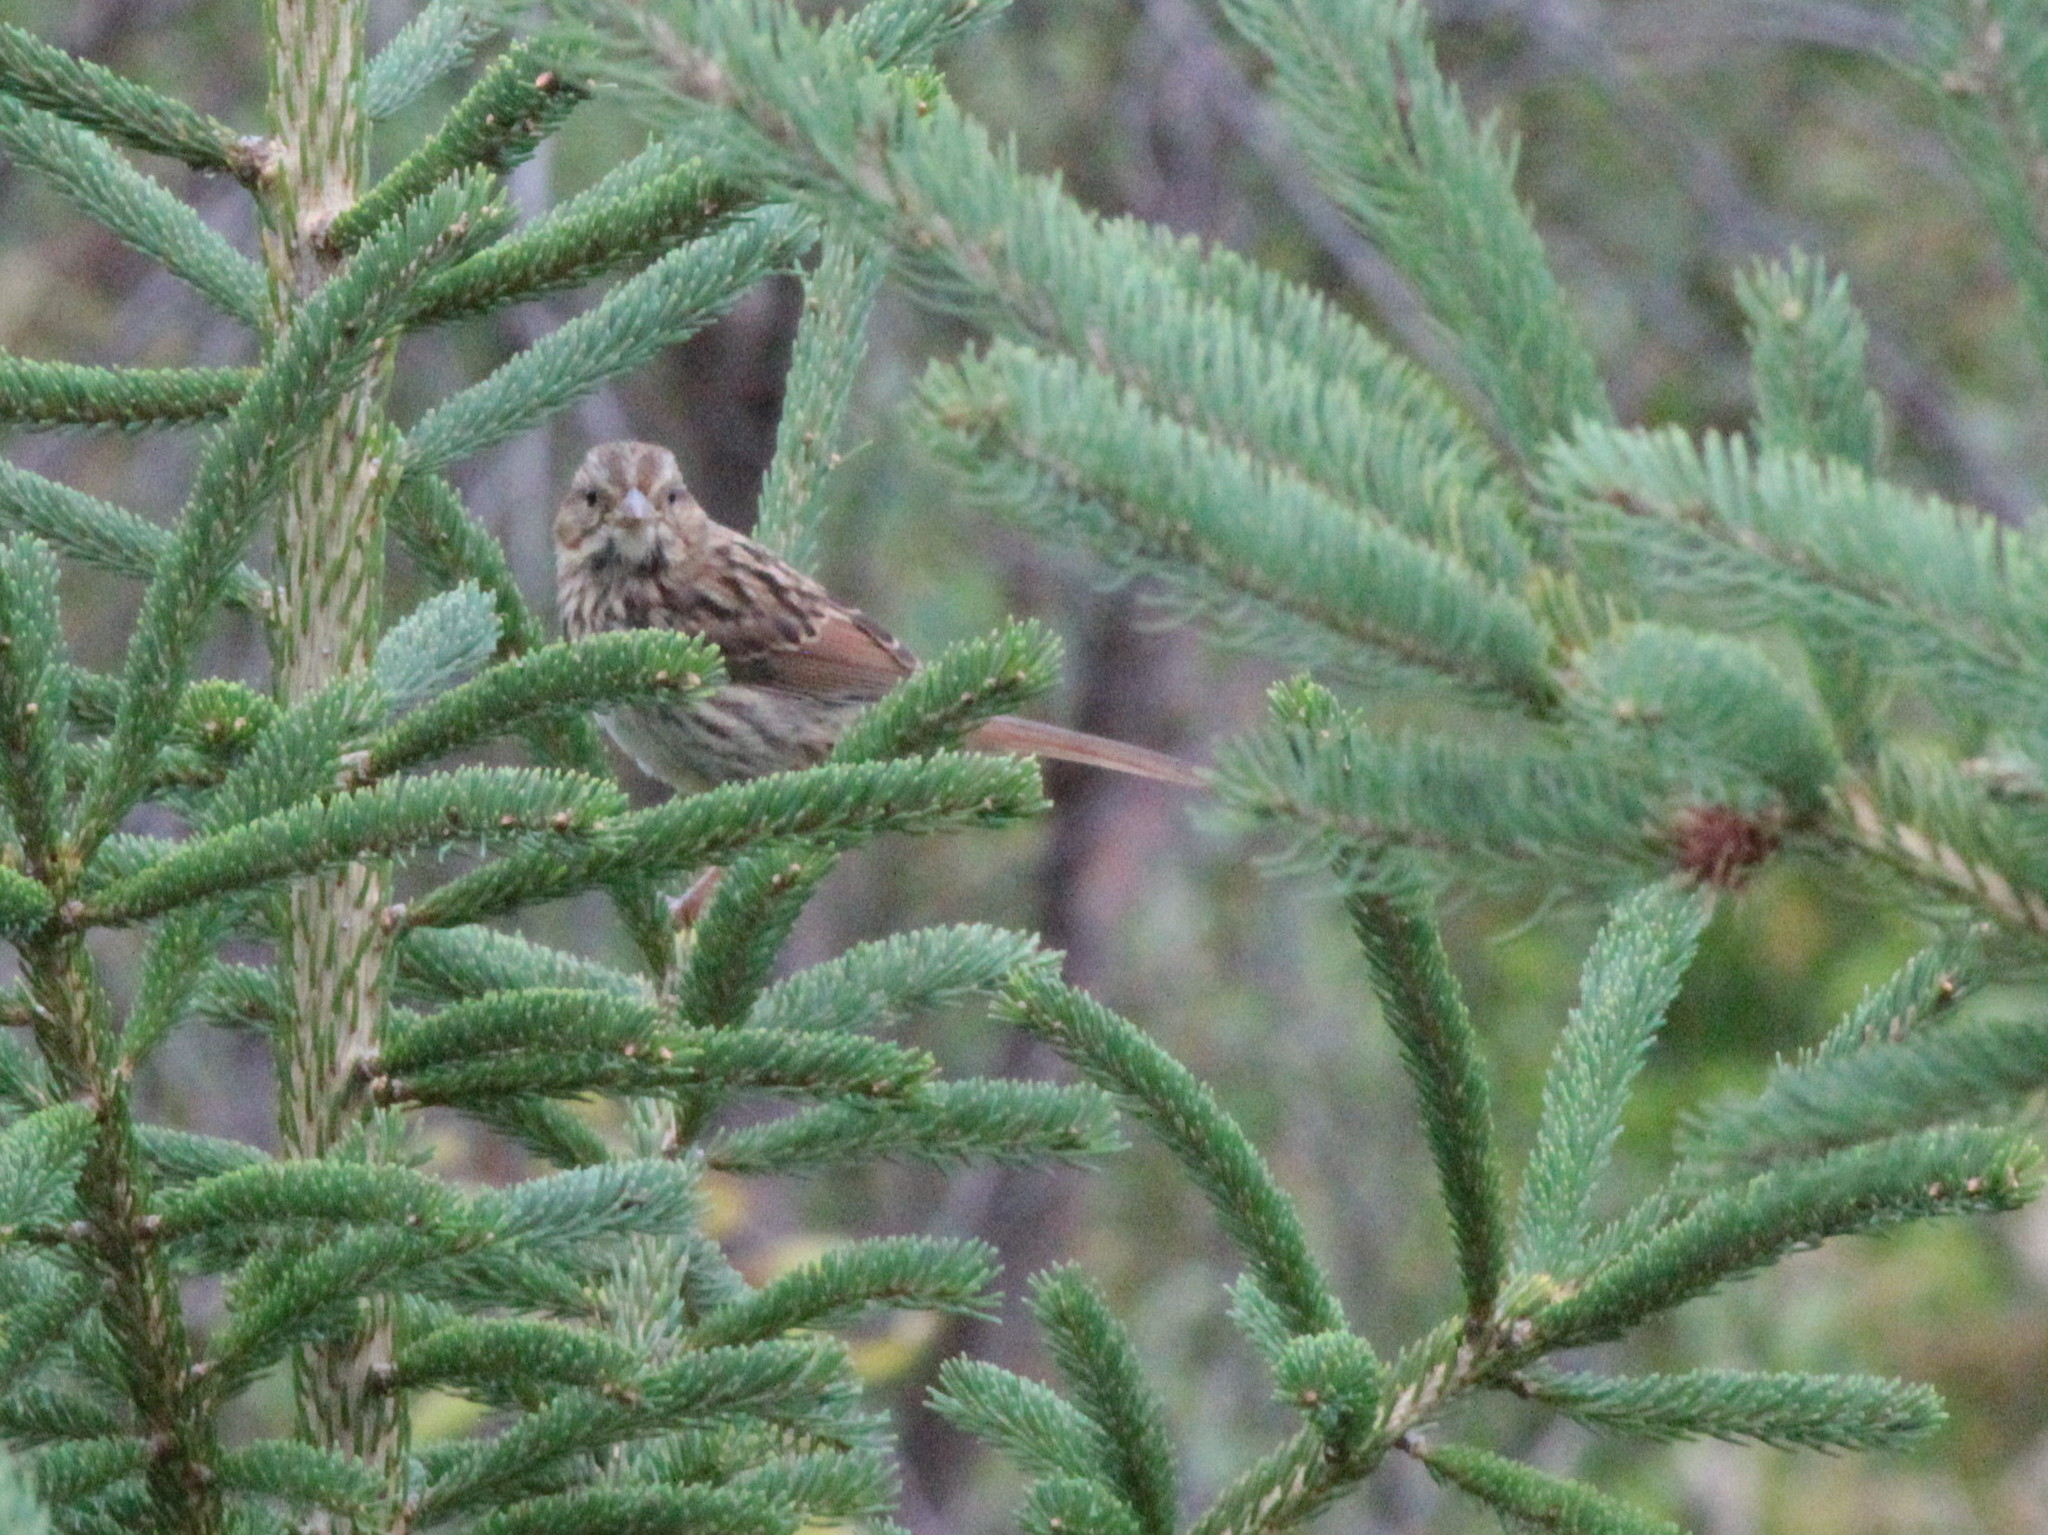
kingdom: Animalia
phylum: Chordata
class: Aves
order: Passeriformes
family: Passerellidae
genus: Melospiza
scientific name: Melospiza melodia
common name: Song sparrow
